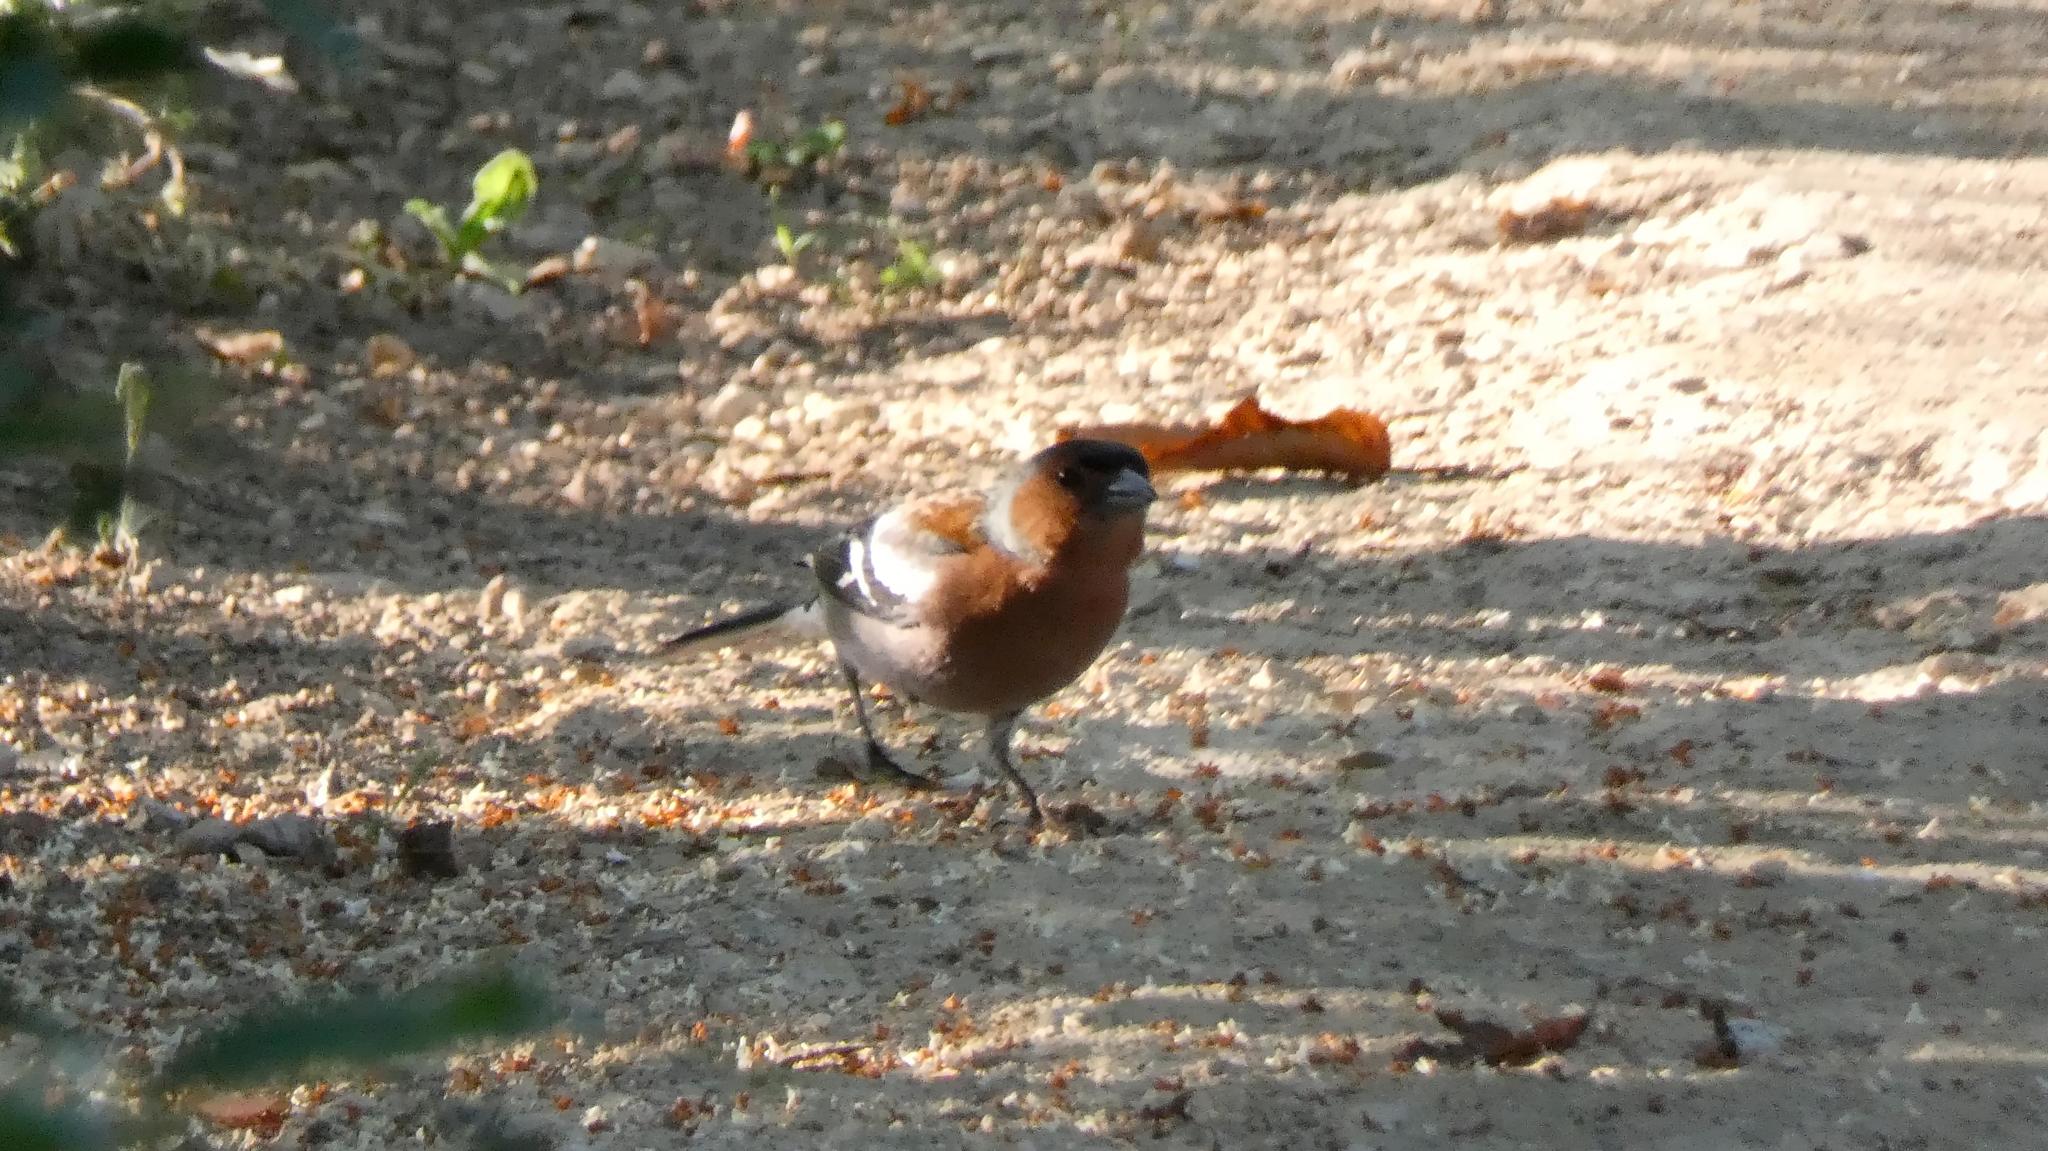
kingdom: Animalia
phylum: Chordata
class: Aves
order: Passeriformes
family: Fringillidae
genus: Fringilla
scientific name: Fringilla coelebs
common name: Common chaffinch
